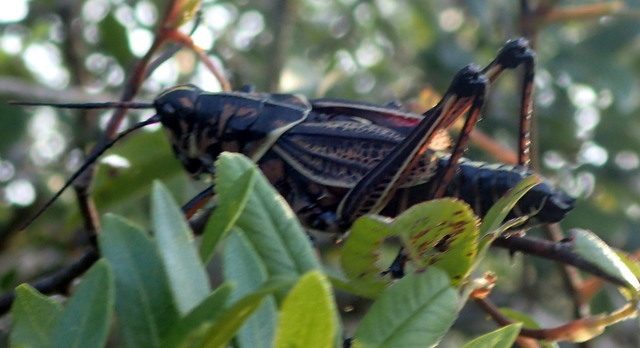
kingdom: Animalia
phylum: Arthropoda
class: Insecta
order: Orthoptera
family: Romaleidae
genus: Romalea
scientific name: Romalea microptera
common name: Eastern lubber grasshopper
